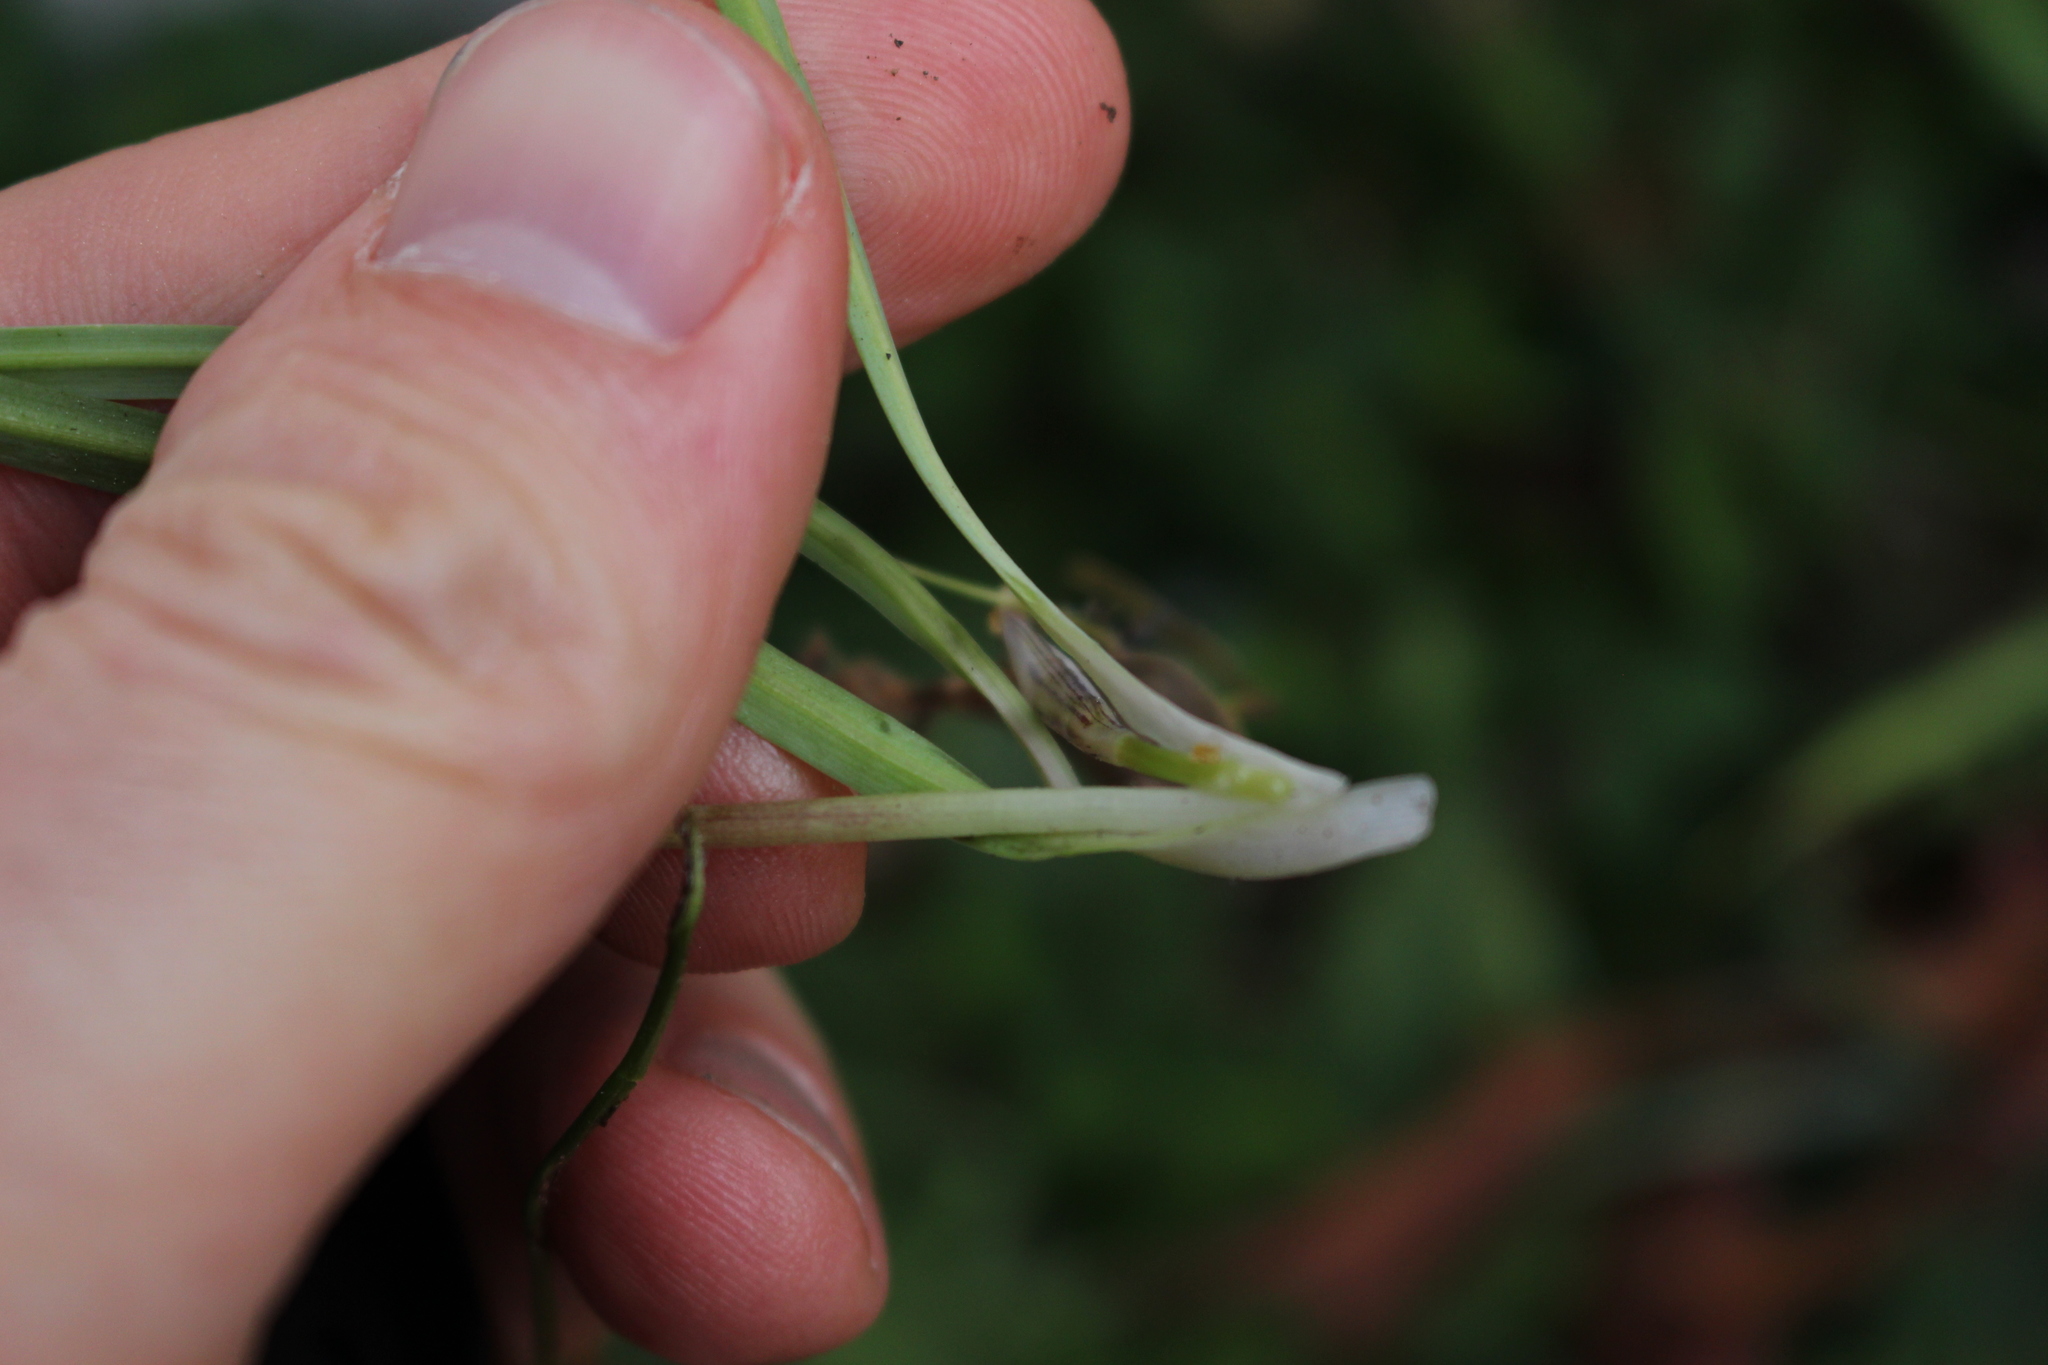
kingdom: Plantae
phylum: Tracheophyta
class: Liliopsida
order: Asparagales
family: Amaryllidaceae
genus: Ipheion
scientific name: Ipheion uniflorum
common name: Spring starflower
